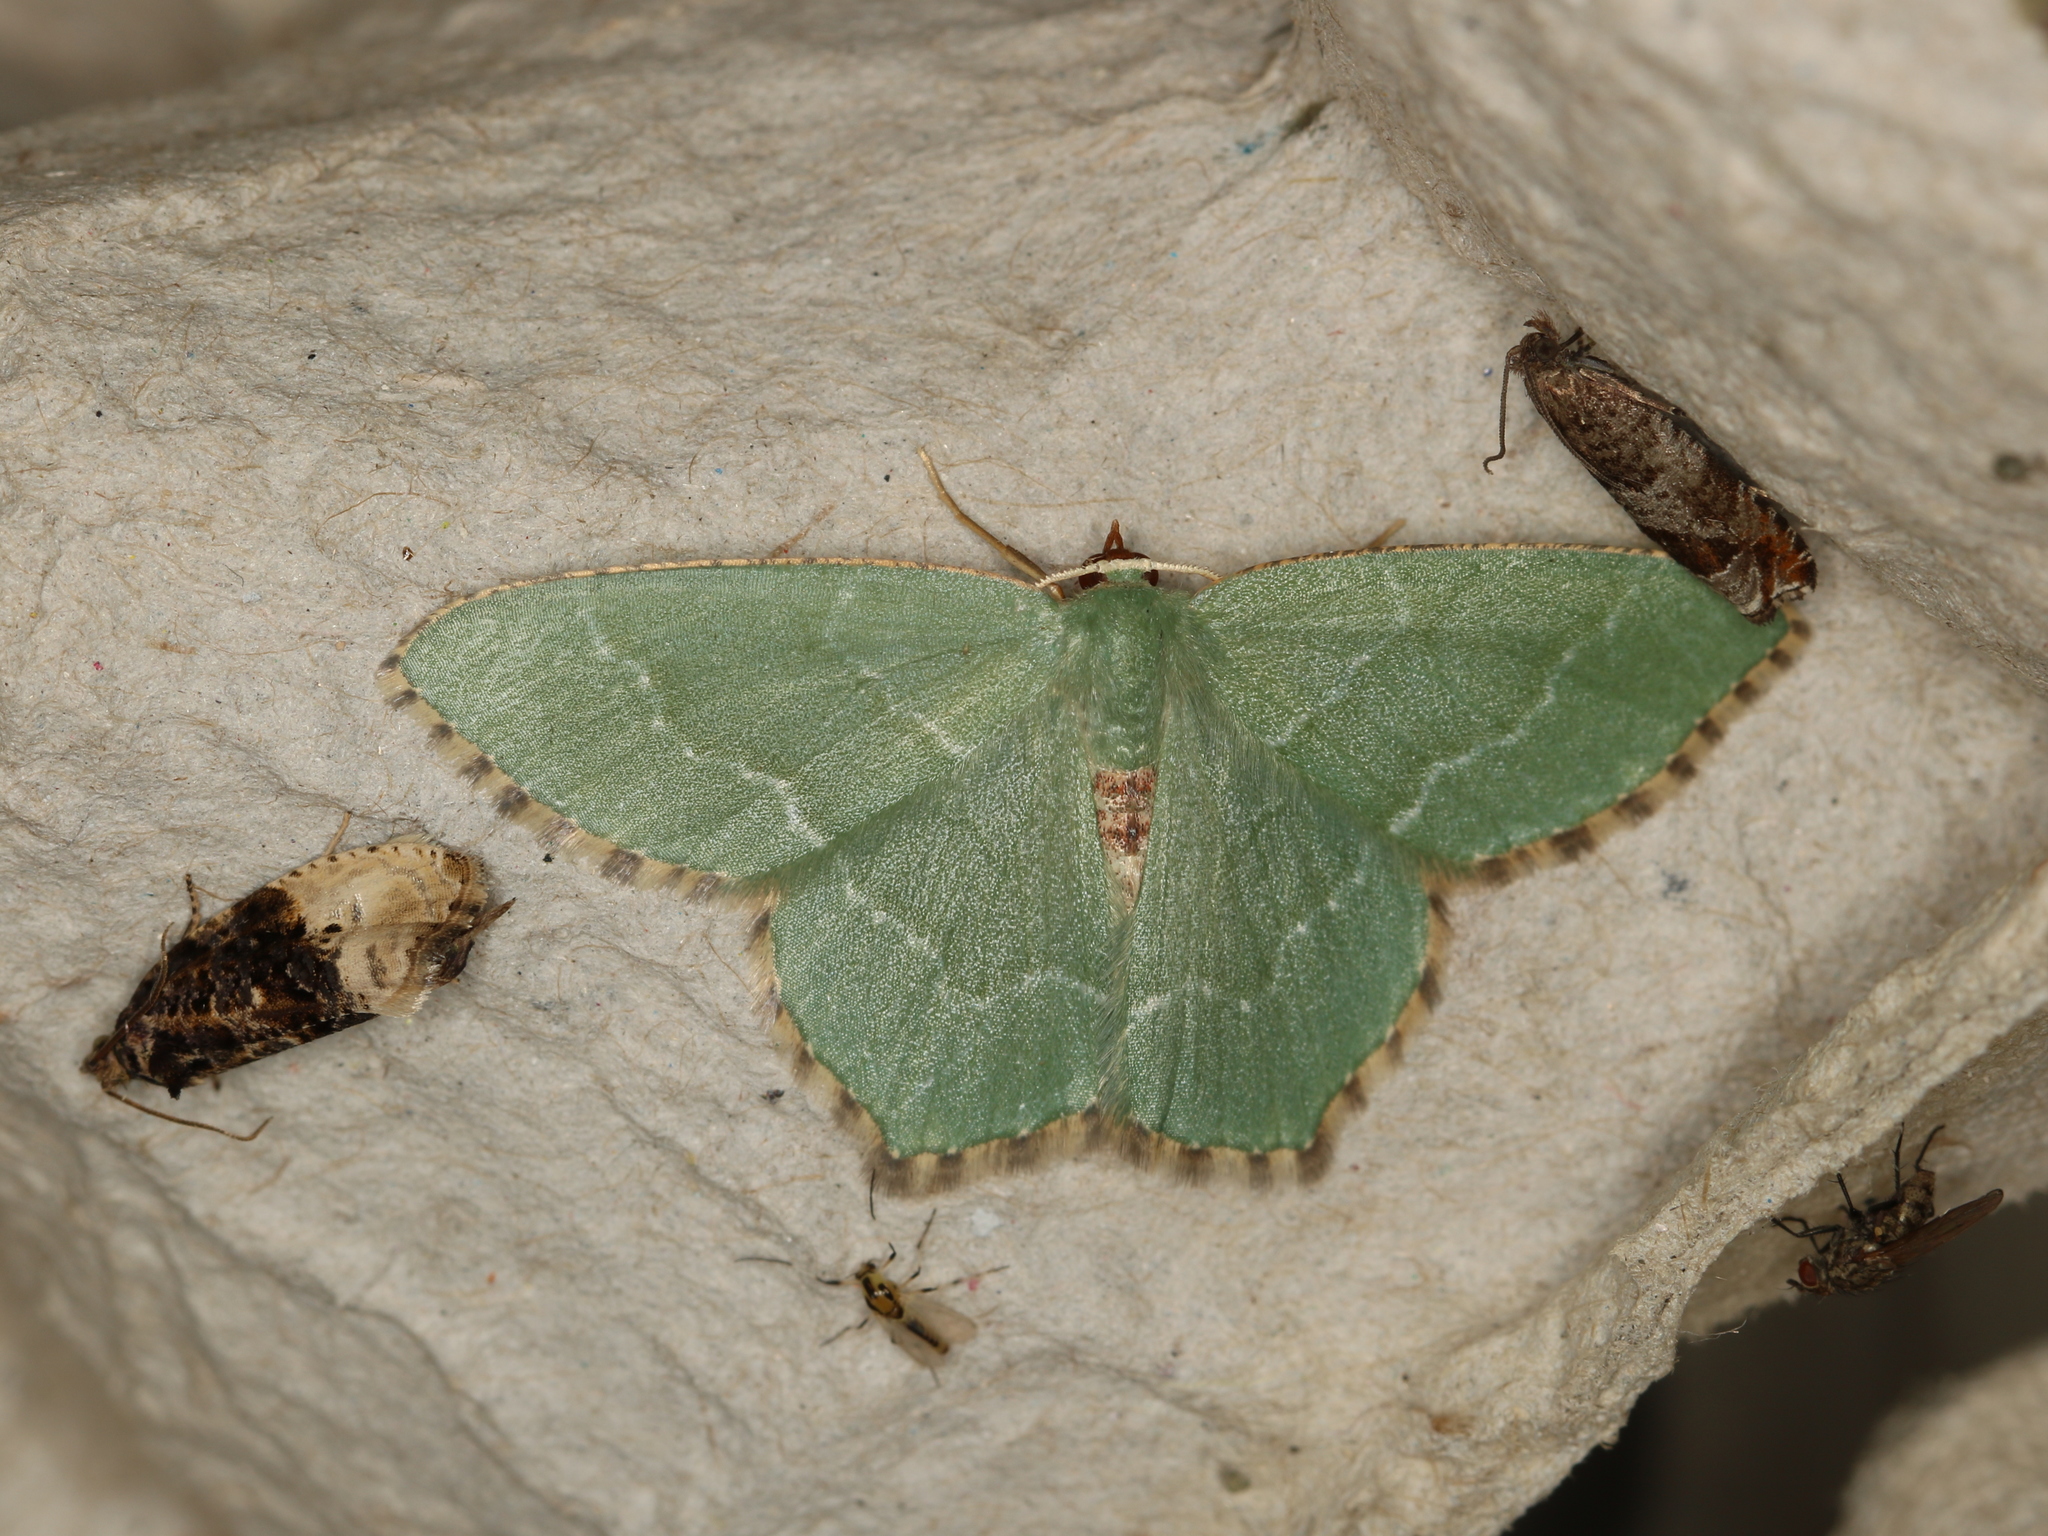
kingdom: Animalia
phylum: Arthropoda
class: Insecta
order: Lepidoptera
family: Geometridae
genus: Hemithea
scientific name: Hemithea aestivaria
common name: Common emerald
